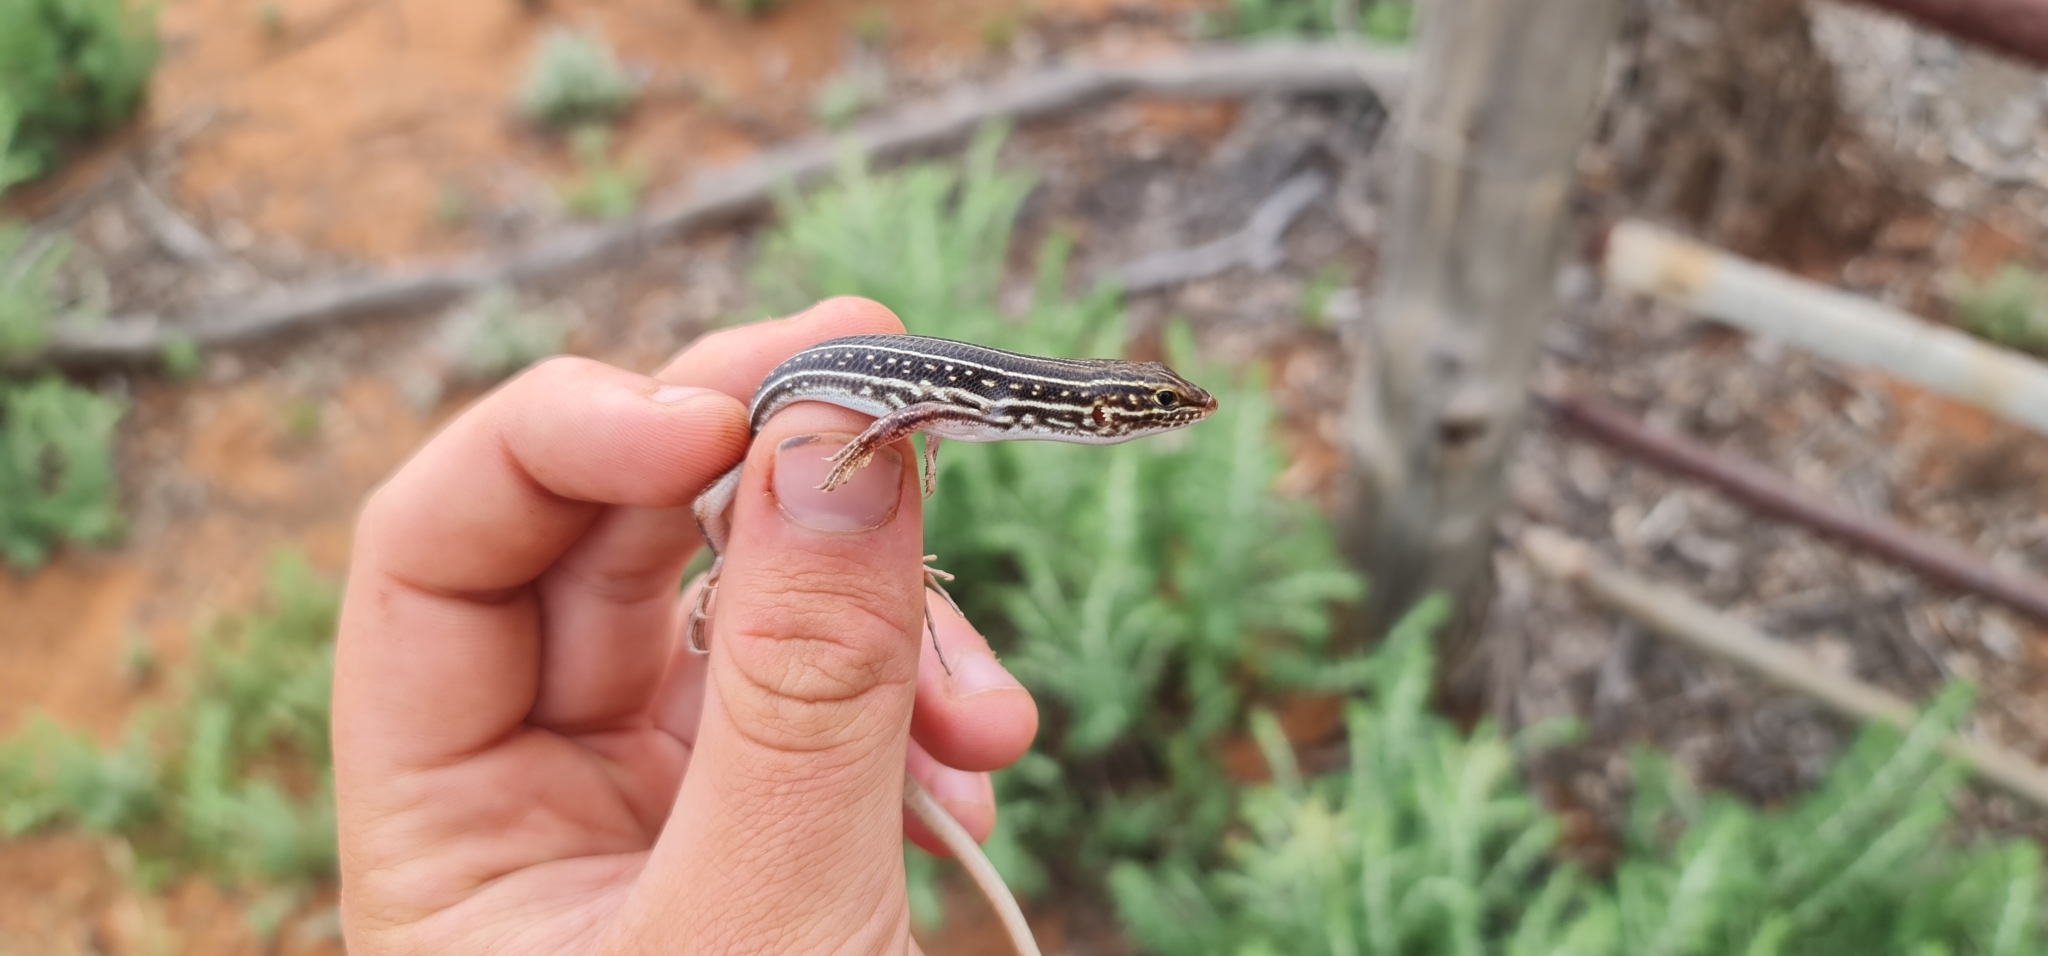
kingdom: Animalia
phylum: Chordata
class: Squamata
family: Scincidae
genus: Ctenotus
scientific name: Ctenotus regius
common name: Pale-rumped ctenotus
